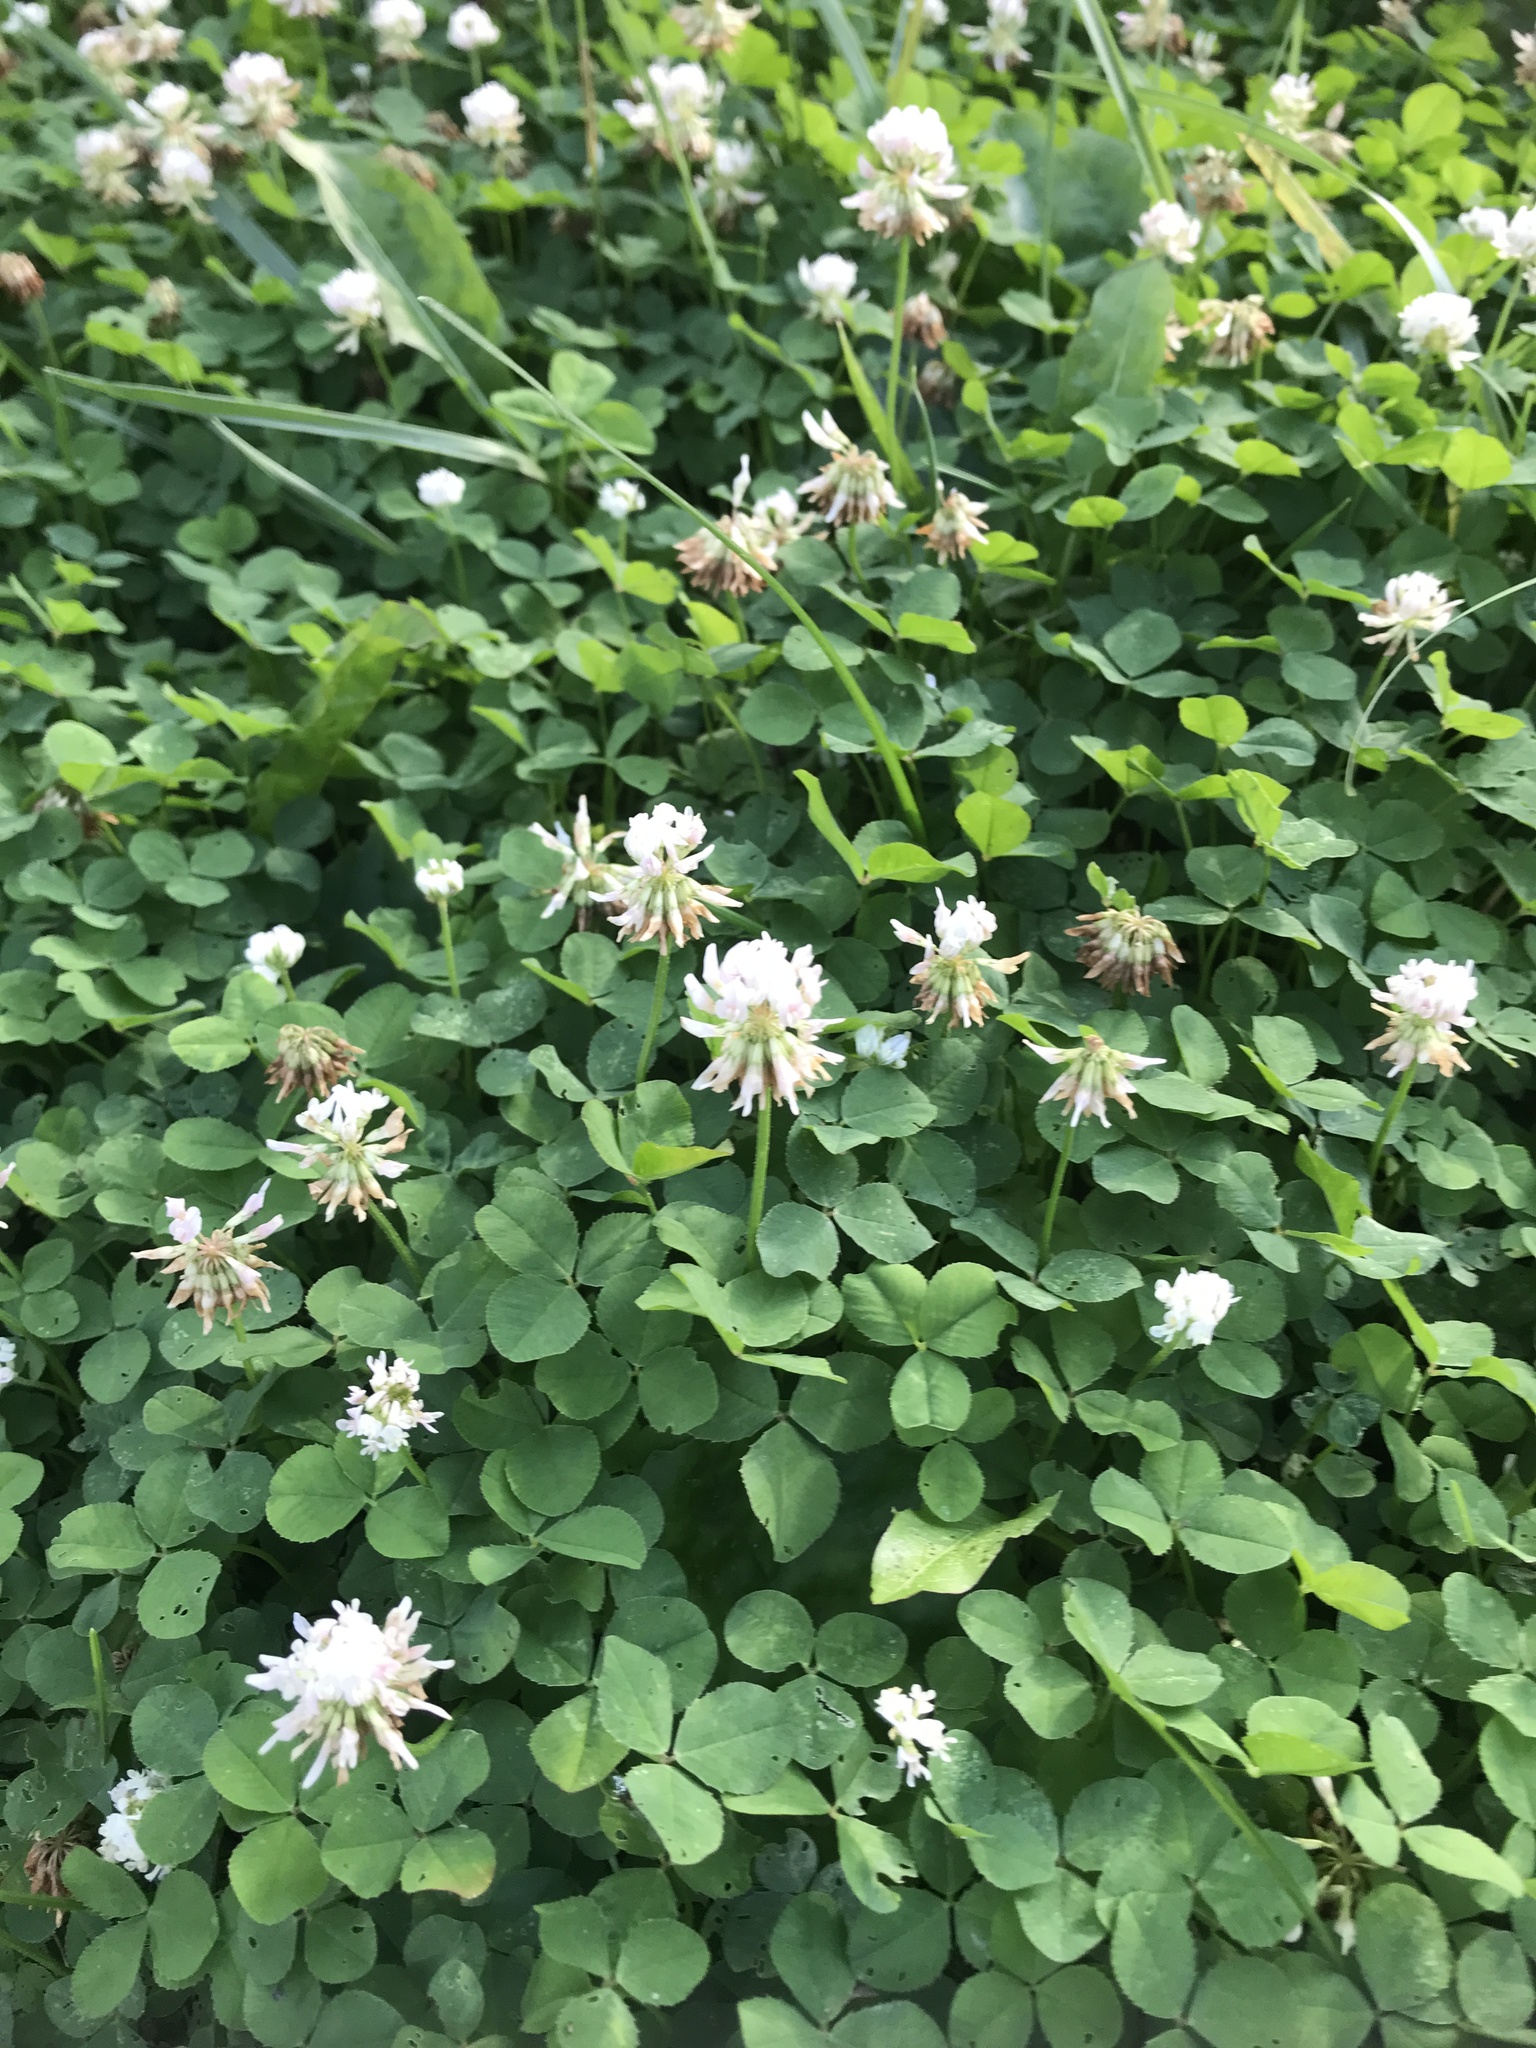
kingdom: Plantae
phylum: Tracheophyta
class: Magnoliopsida
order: Fabales
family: Fabaceae
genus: Trifolium
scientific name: Trifolium repens
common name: White clover
